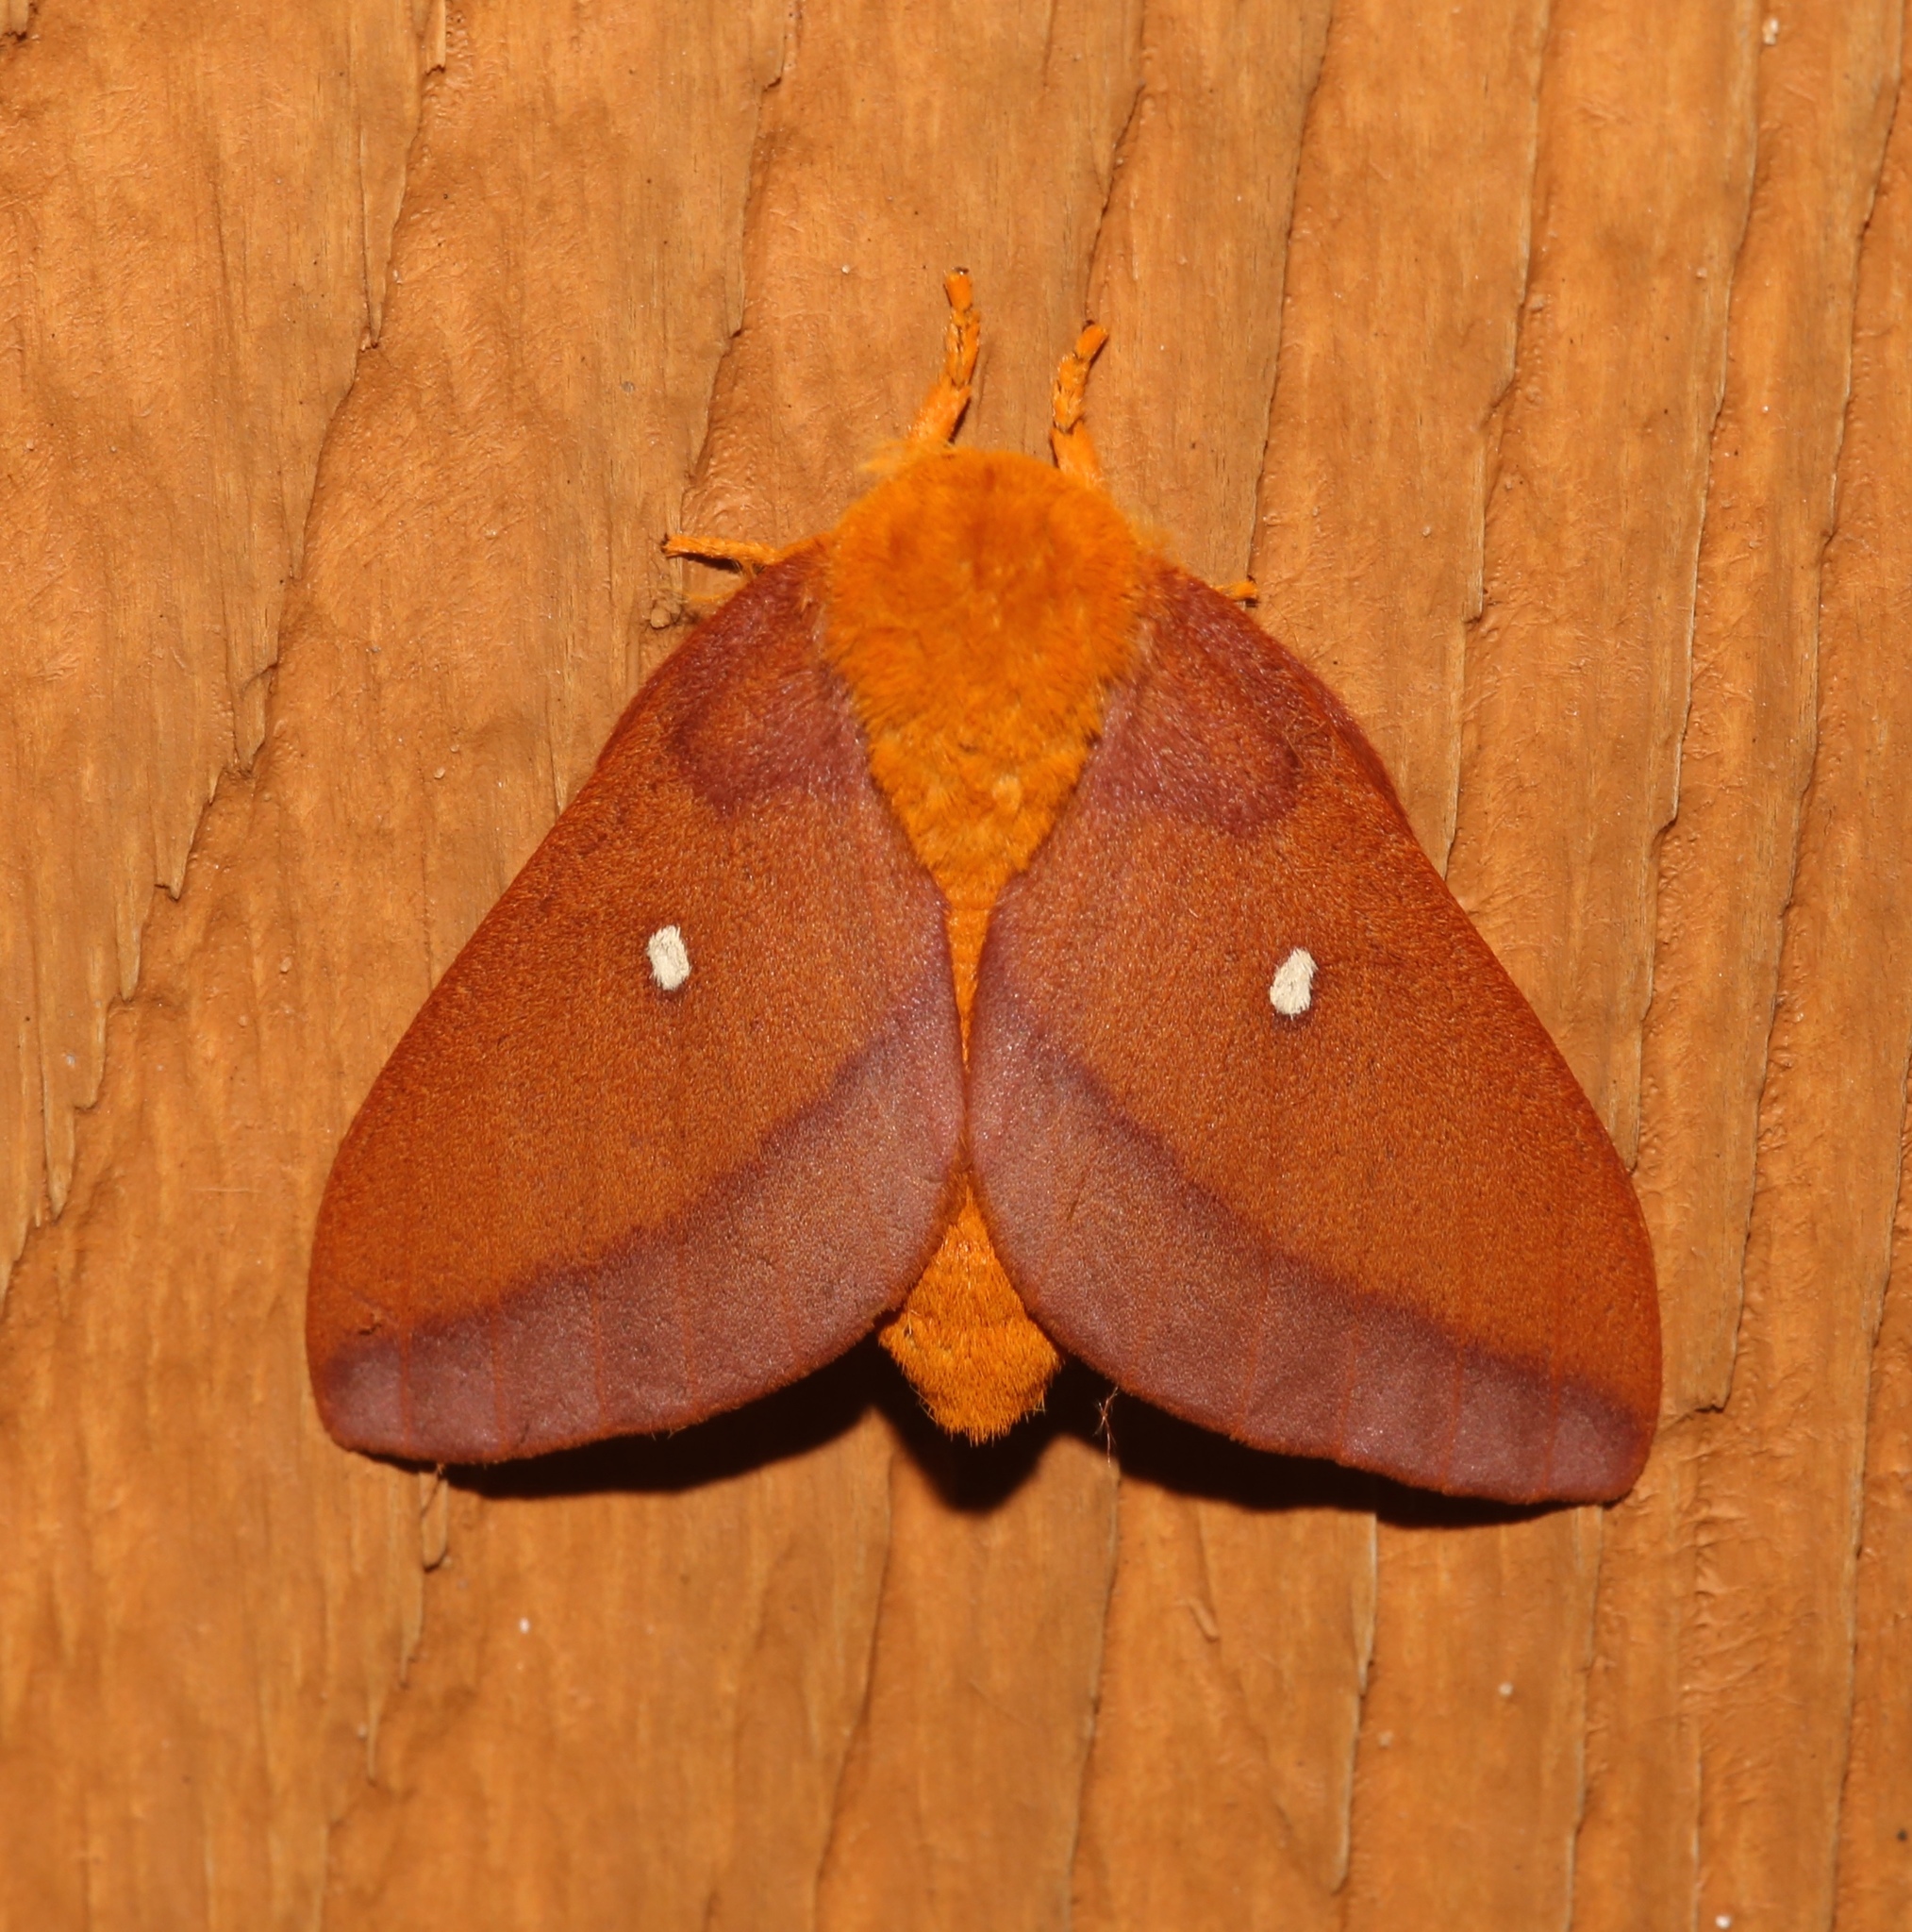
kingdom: Animalia
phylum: Arthropoda
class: Insecta
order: Lepidoptera
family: Saturniidae
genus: Anisota
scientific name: Anisota virginiensis
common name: Pink striped oakworm moth
